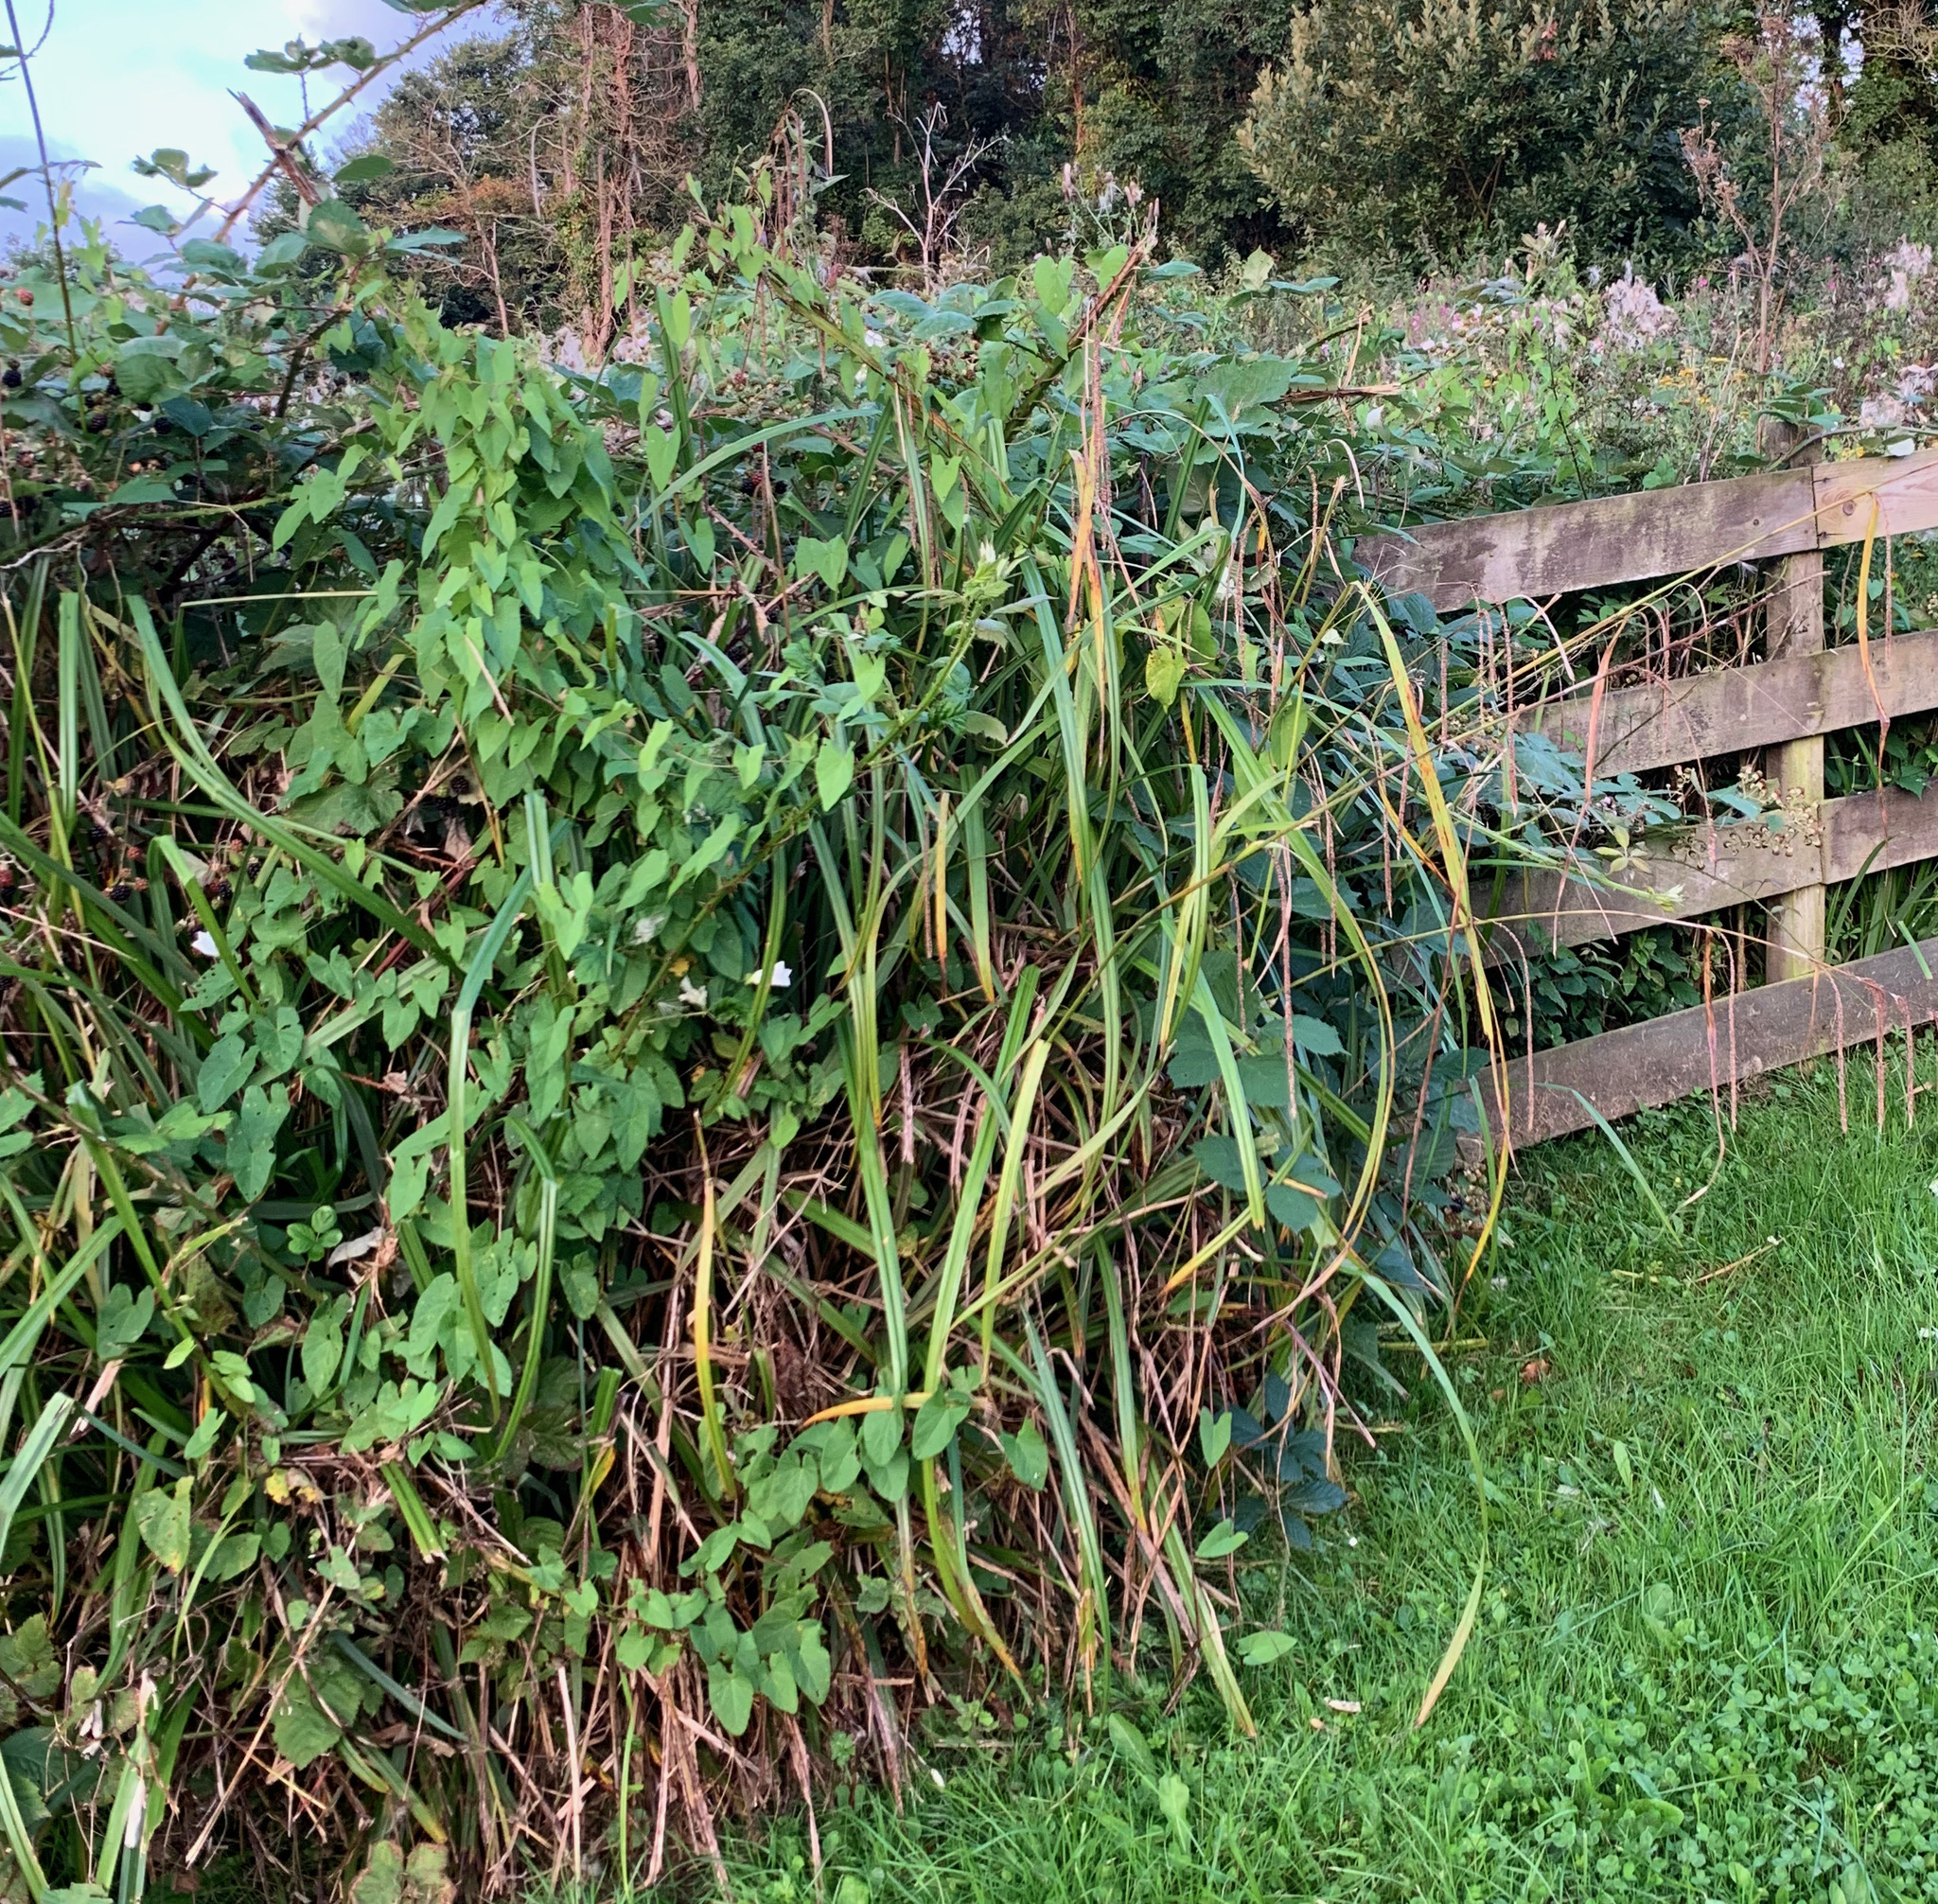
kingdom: Plantae
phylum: Tracheophyta
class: Liliopsida
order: Poales
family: Cyperaceae
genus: Carex
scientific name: Carex pendula
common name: Pendulous sedge
